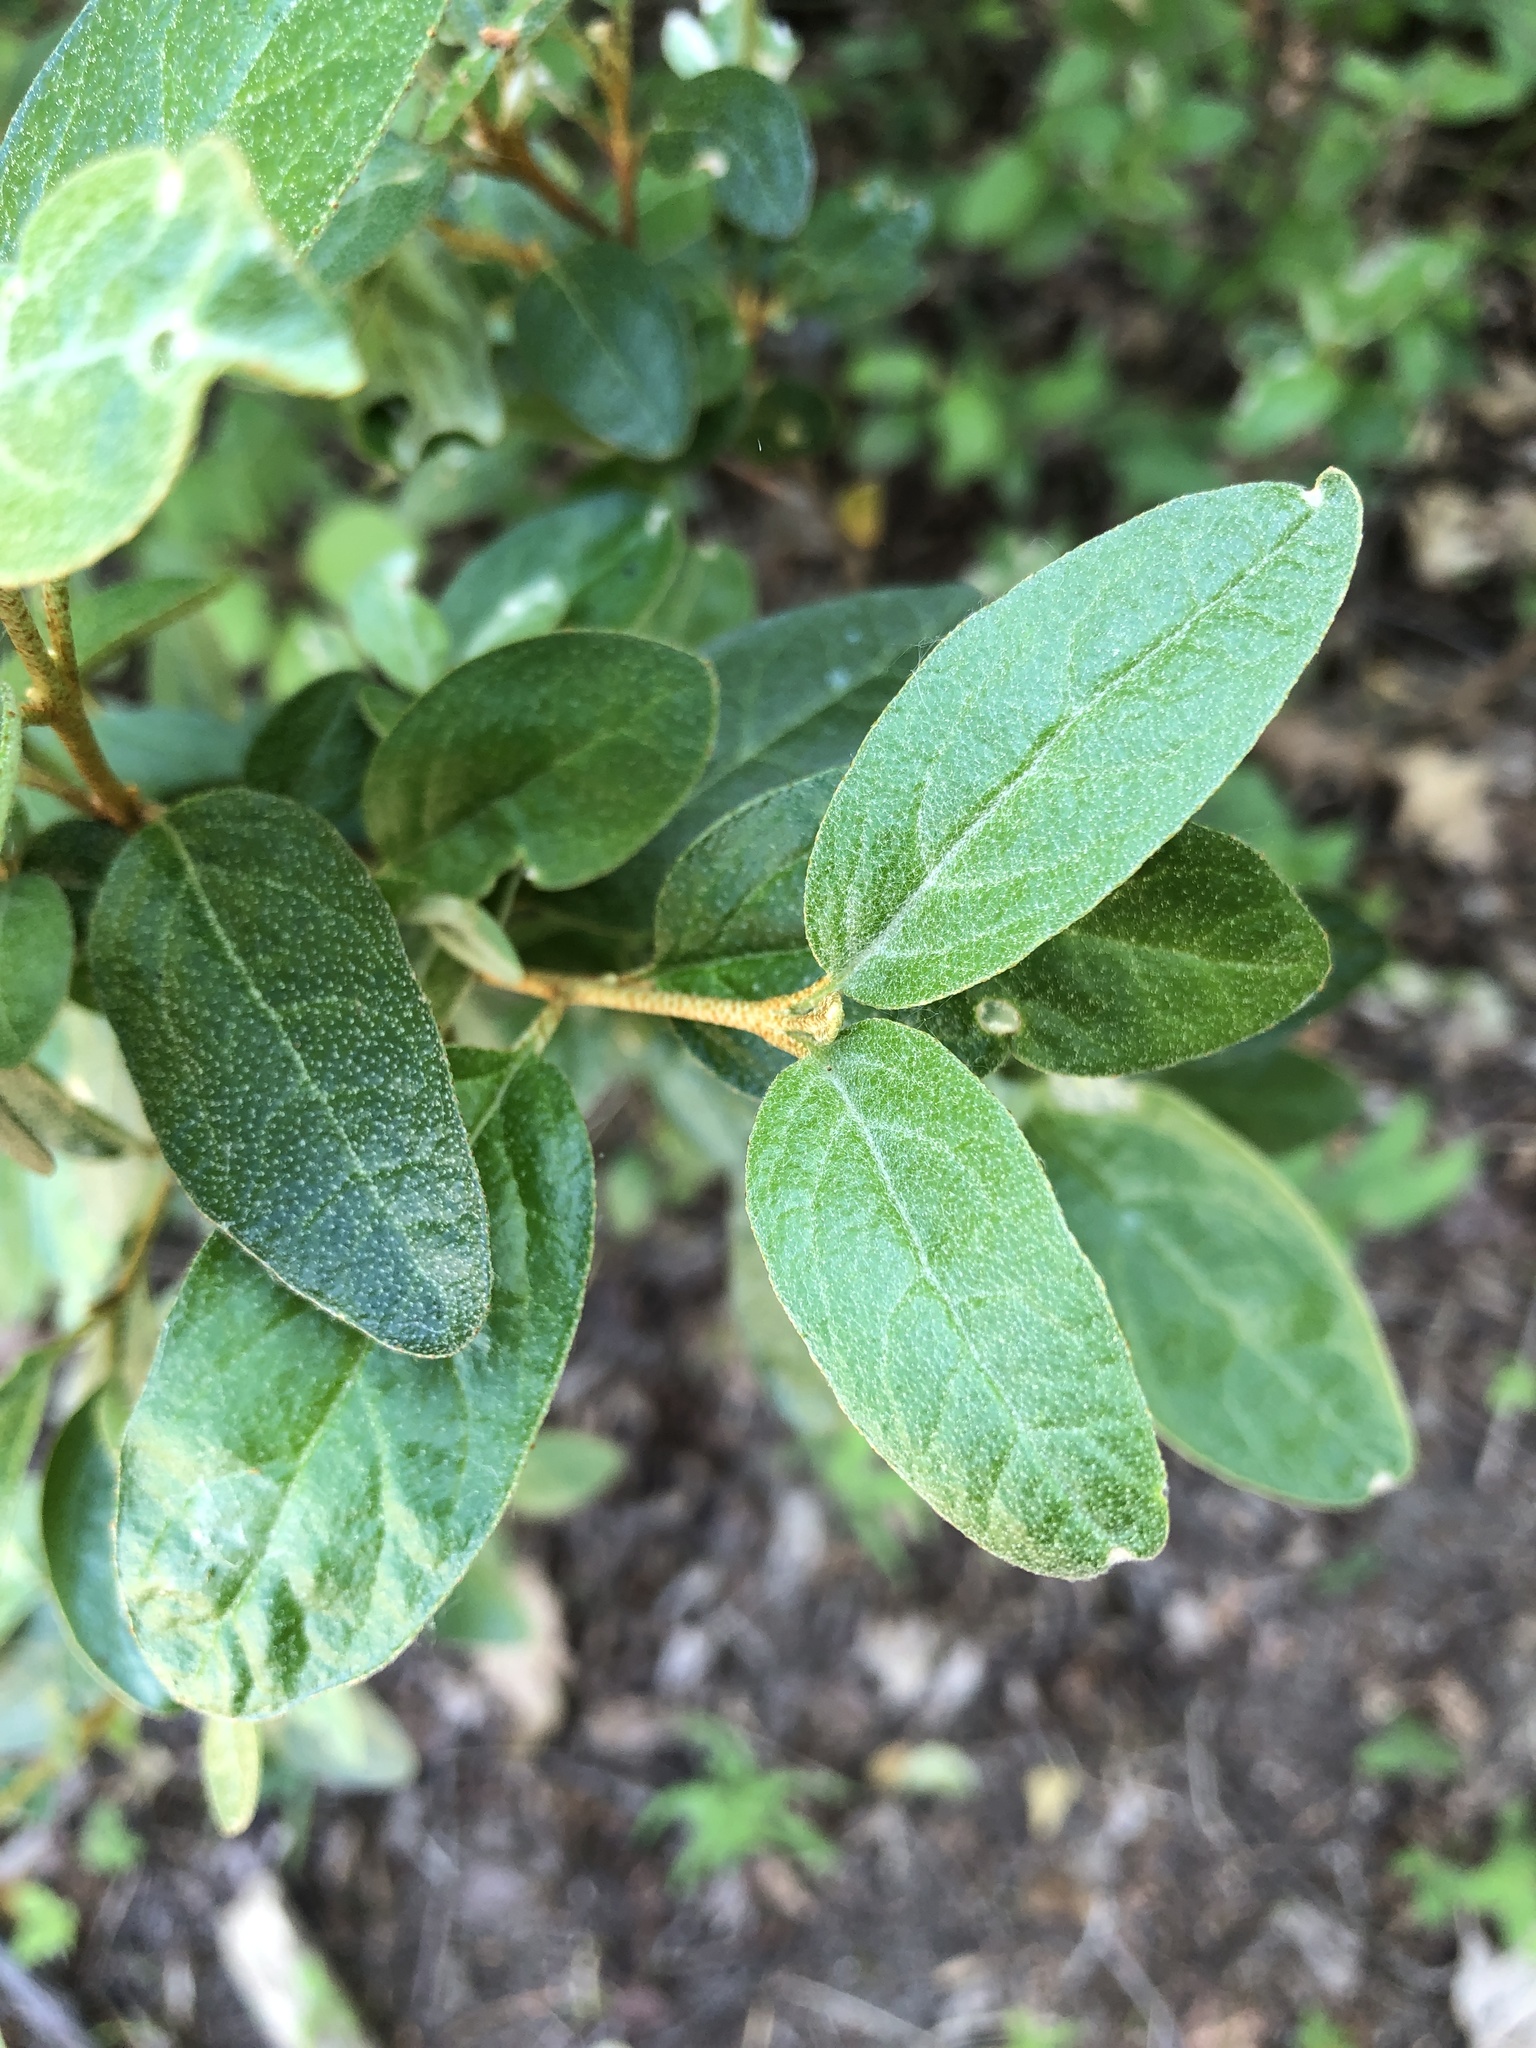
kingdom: Plantae
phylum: Tracheophyta
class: Magnoliopsida
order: Rosales
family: Elaeagnaceae
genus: Shepherdia
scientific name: Shepherdia canadensis
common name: Soapberry
